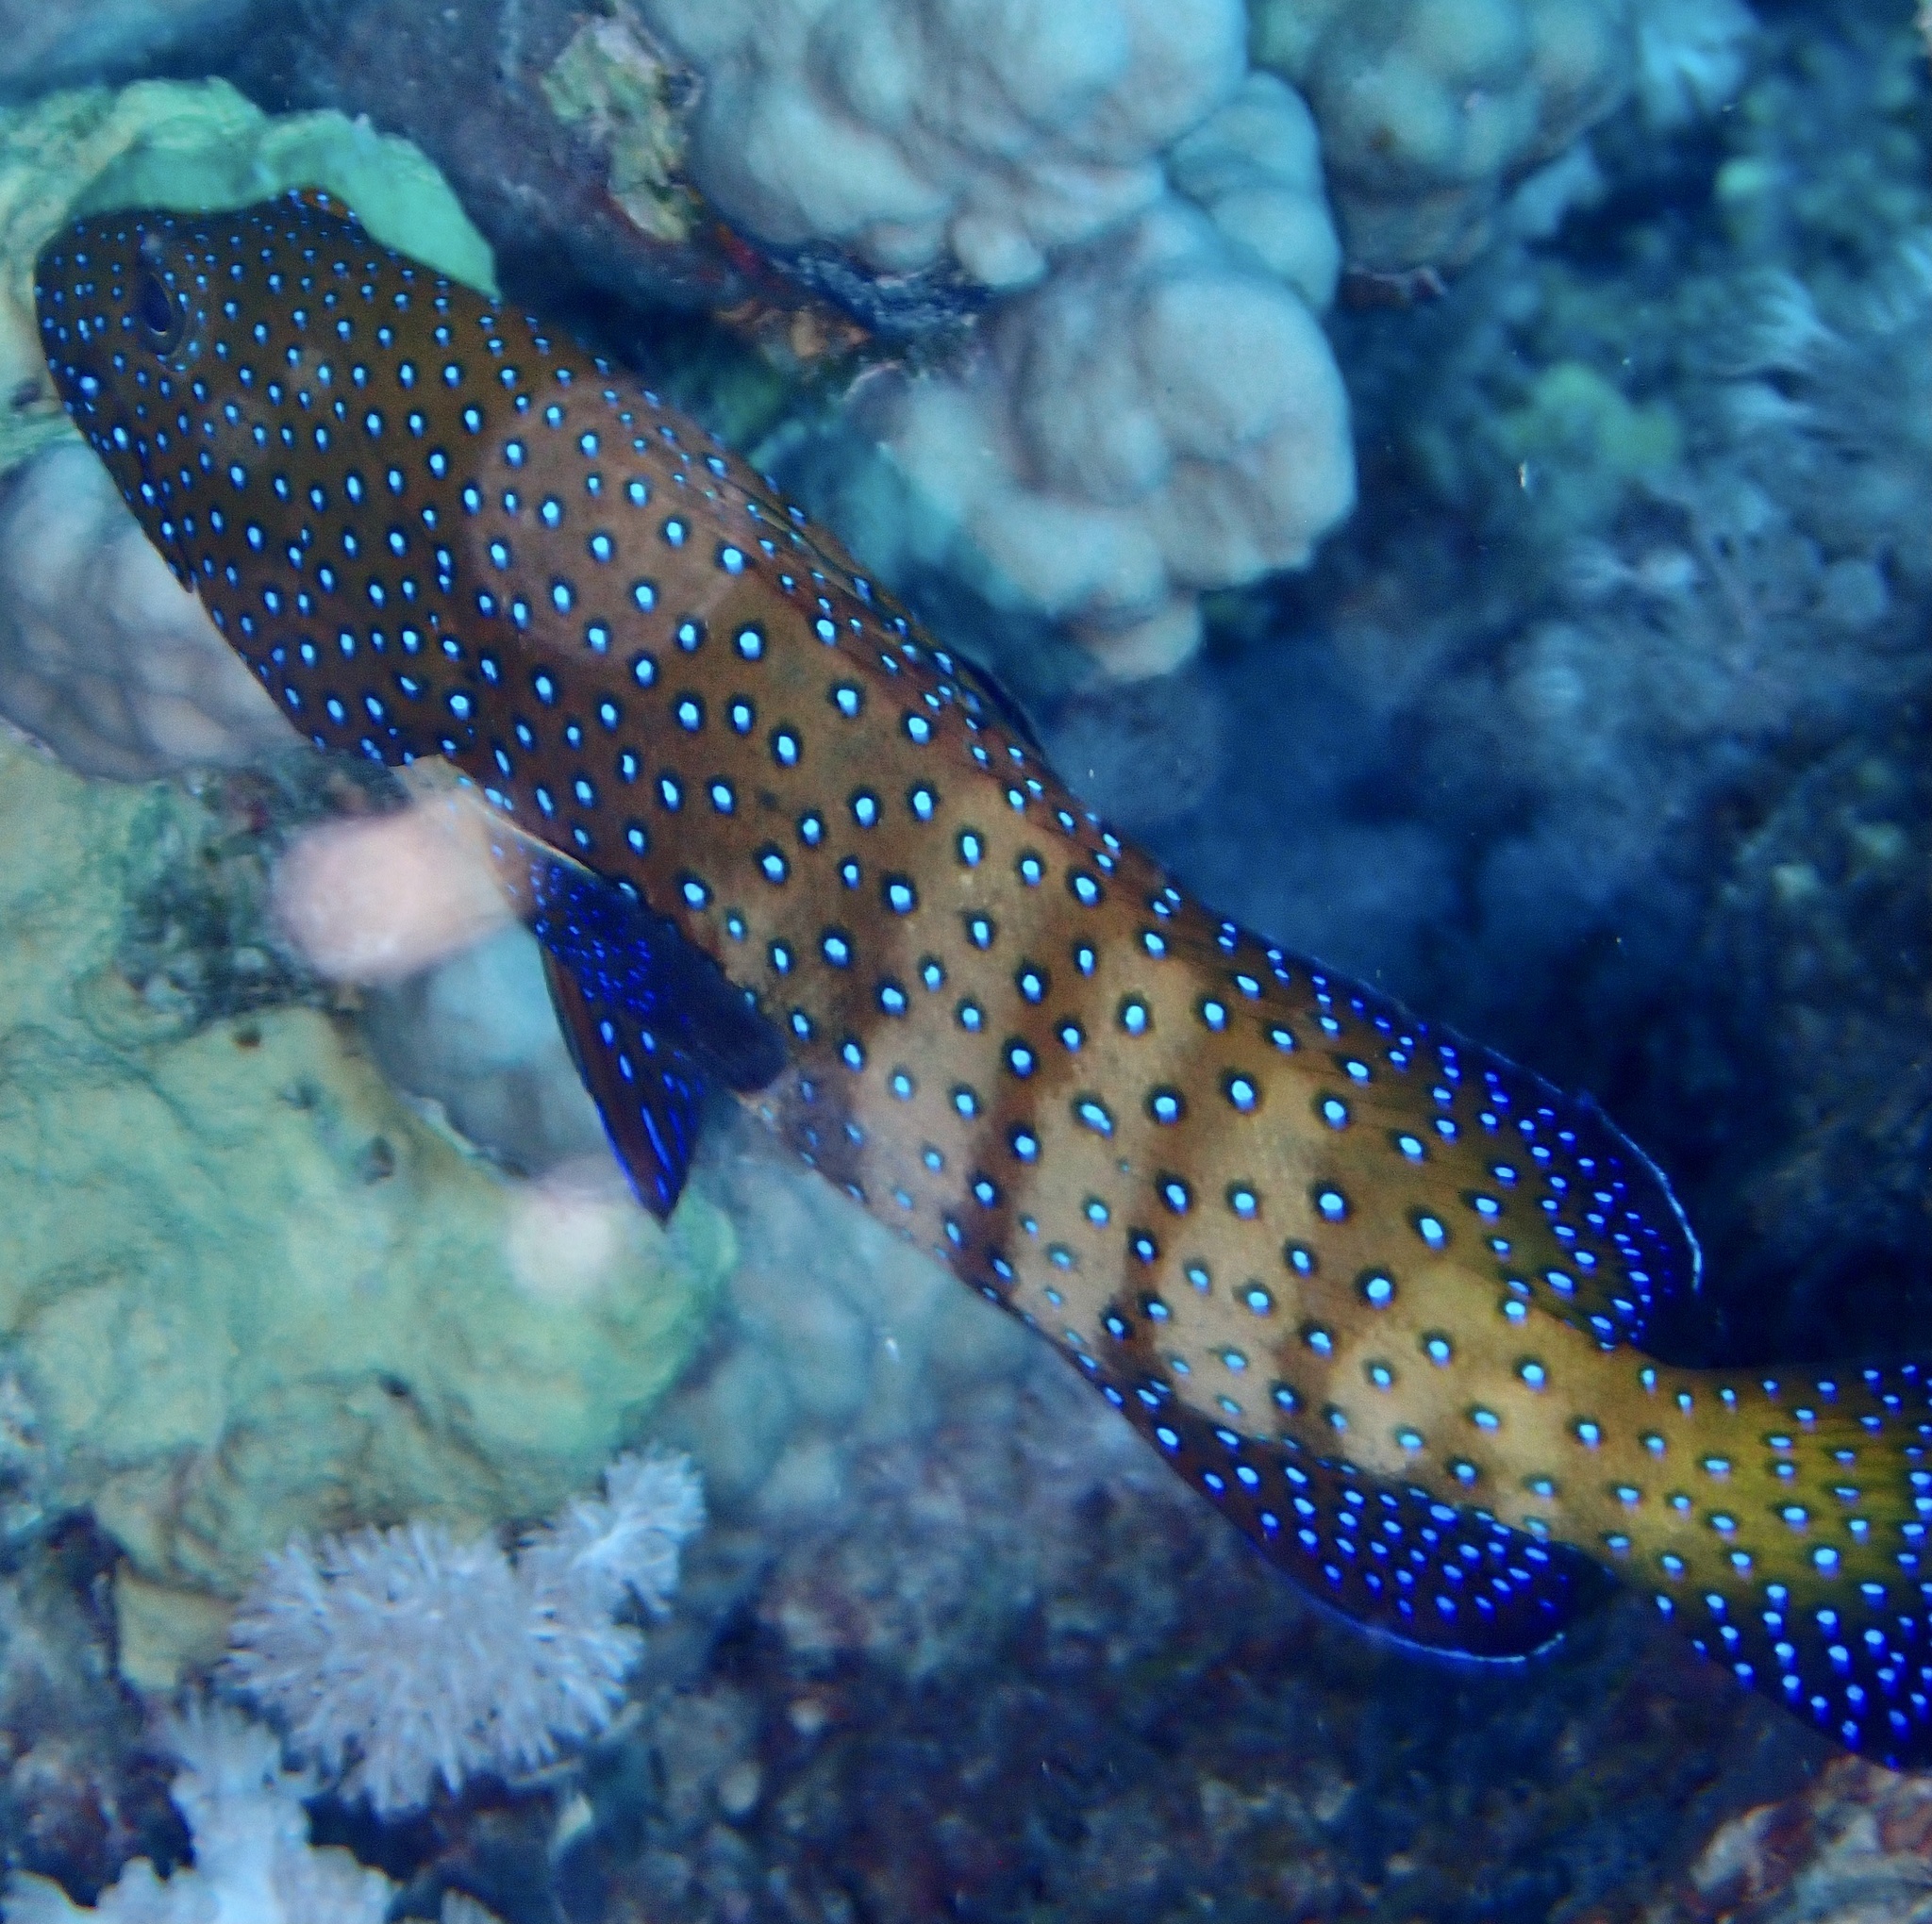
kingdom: Animalia
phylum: Chordata
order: Perciformes
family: Serranidae
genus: Cephalopholis
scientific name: Cephalopholis argus
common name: Peacock grouper
